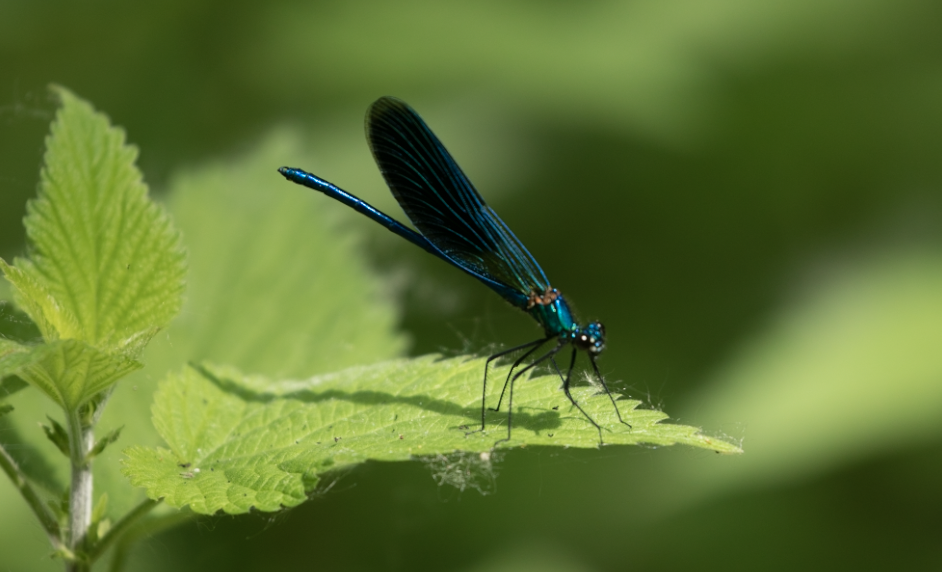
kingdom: Animalia
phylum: Arthropoda
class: Insecta
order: Odonata
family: Calopterygidae
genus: Calopteryx
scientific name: Calopteryx splendens
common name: Banded demoiselle
